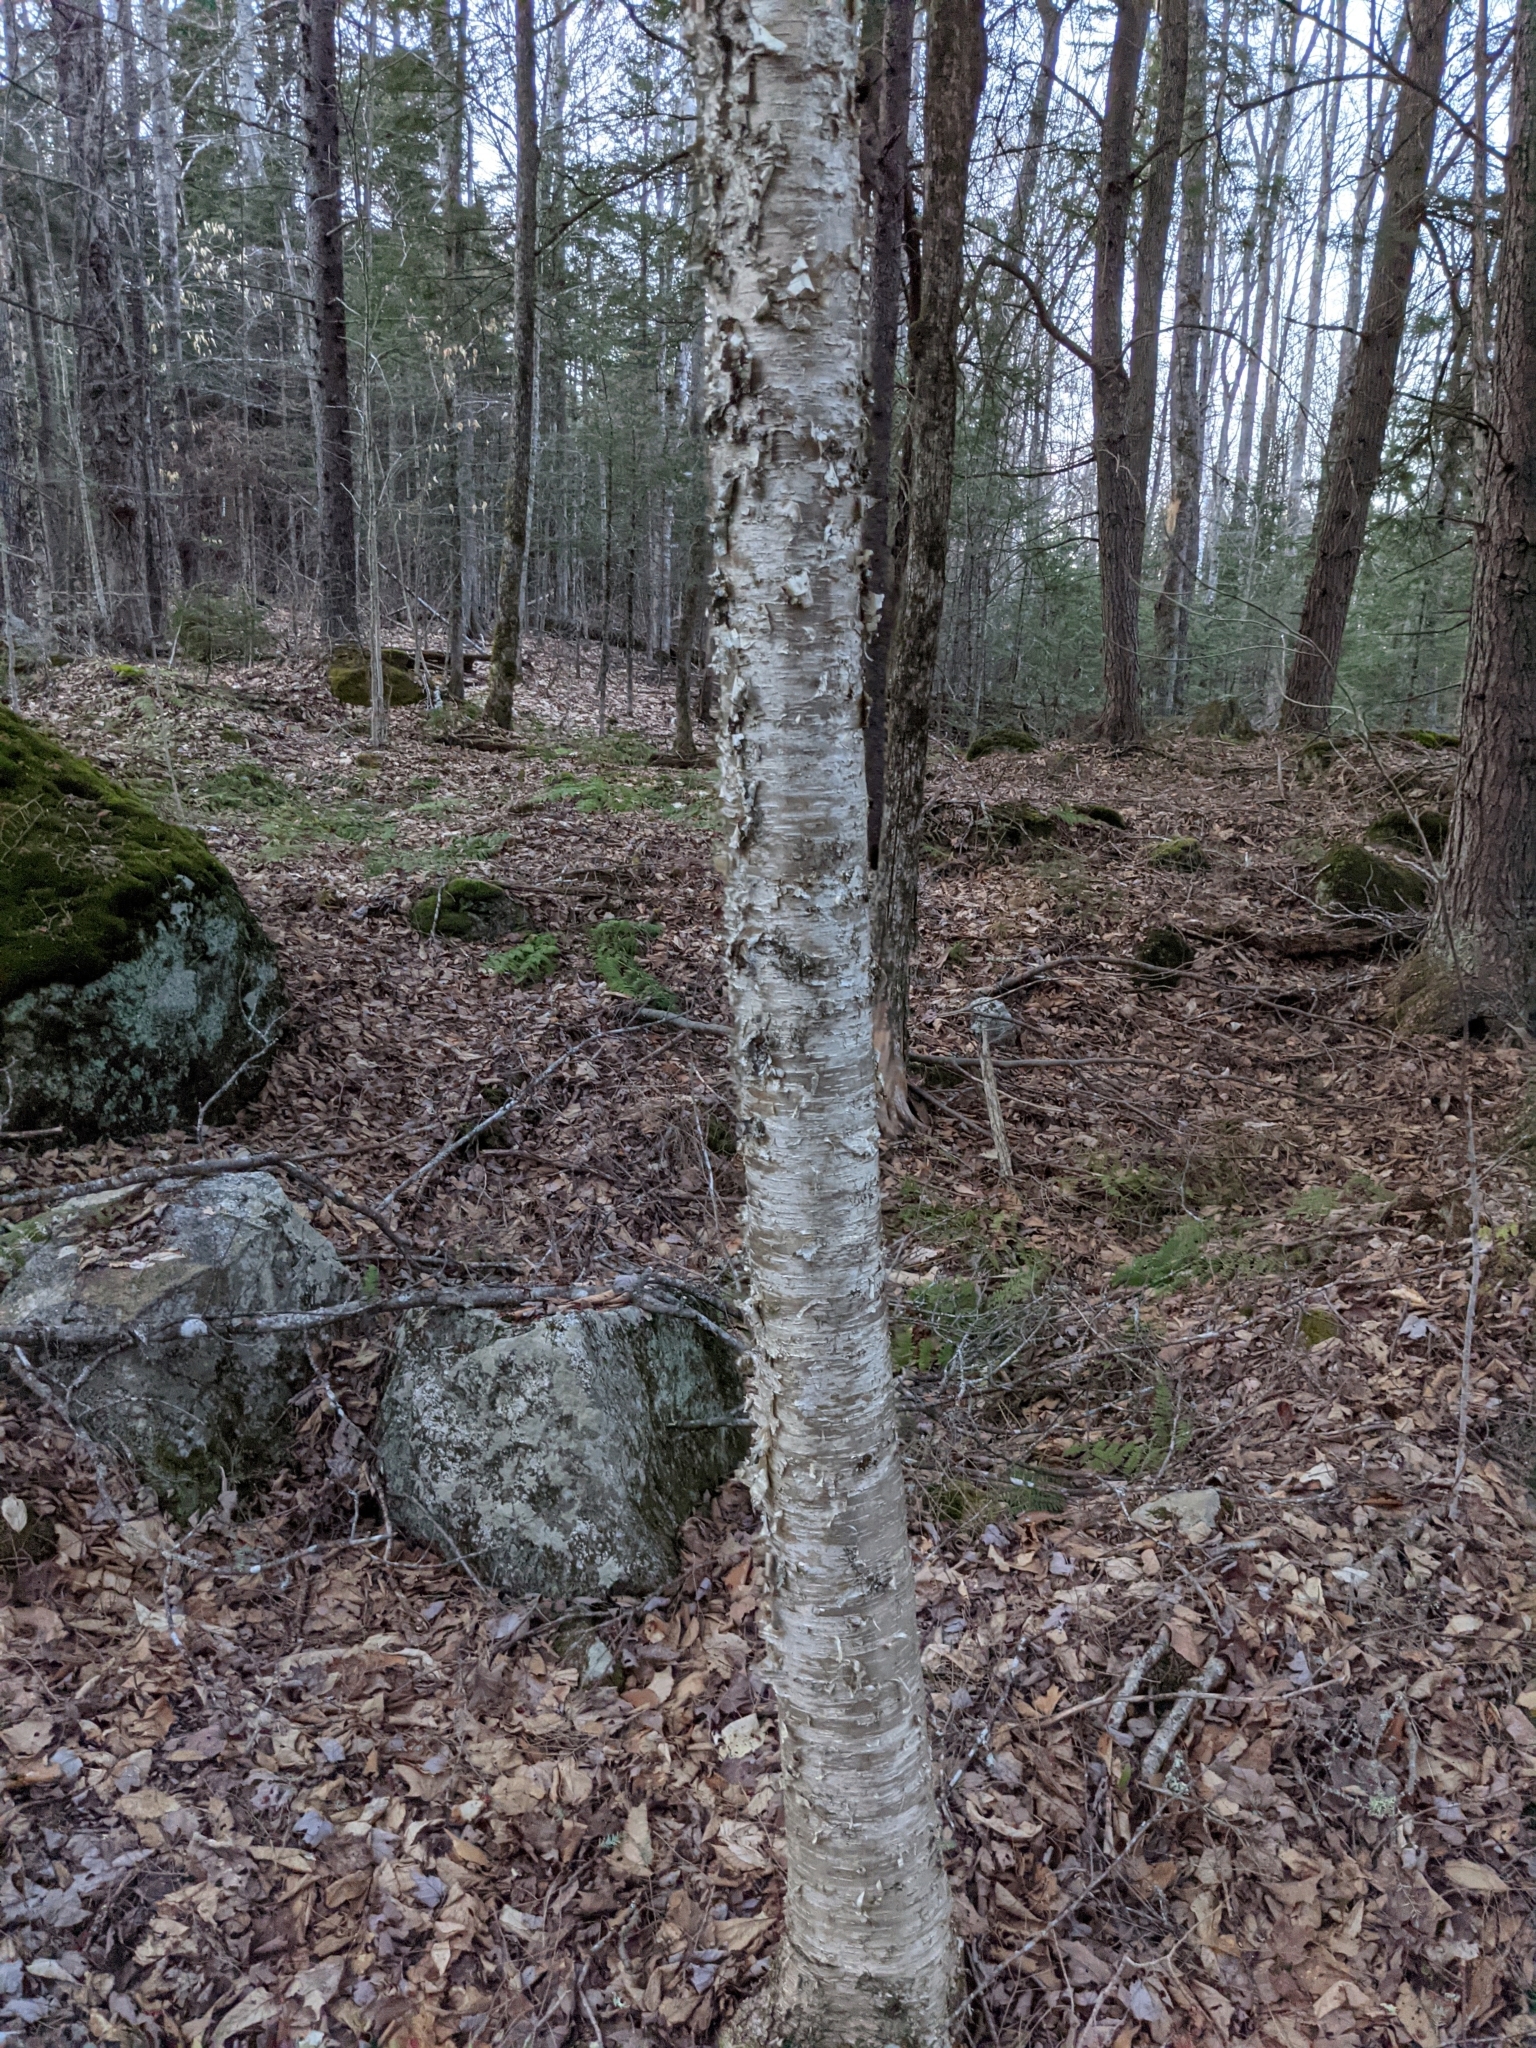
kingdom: Plantae
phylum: Tracheophyta
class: Magnoliopsida
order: Fagales
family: Betulaceae
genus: Betula
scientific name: Betula alleghaniensis
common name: Yellow birch
